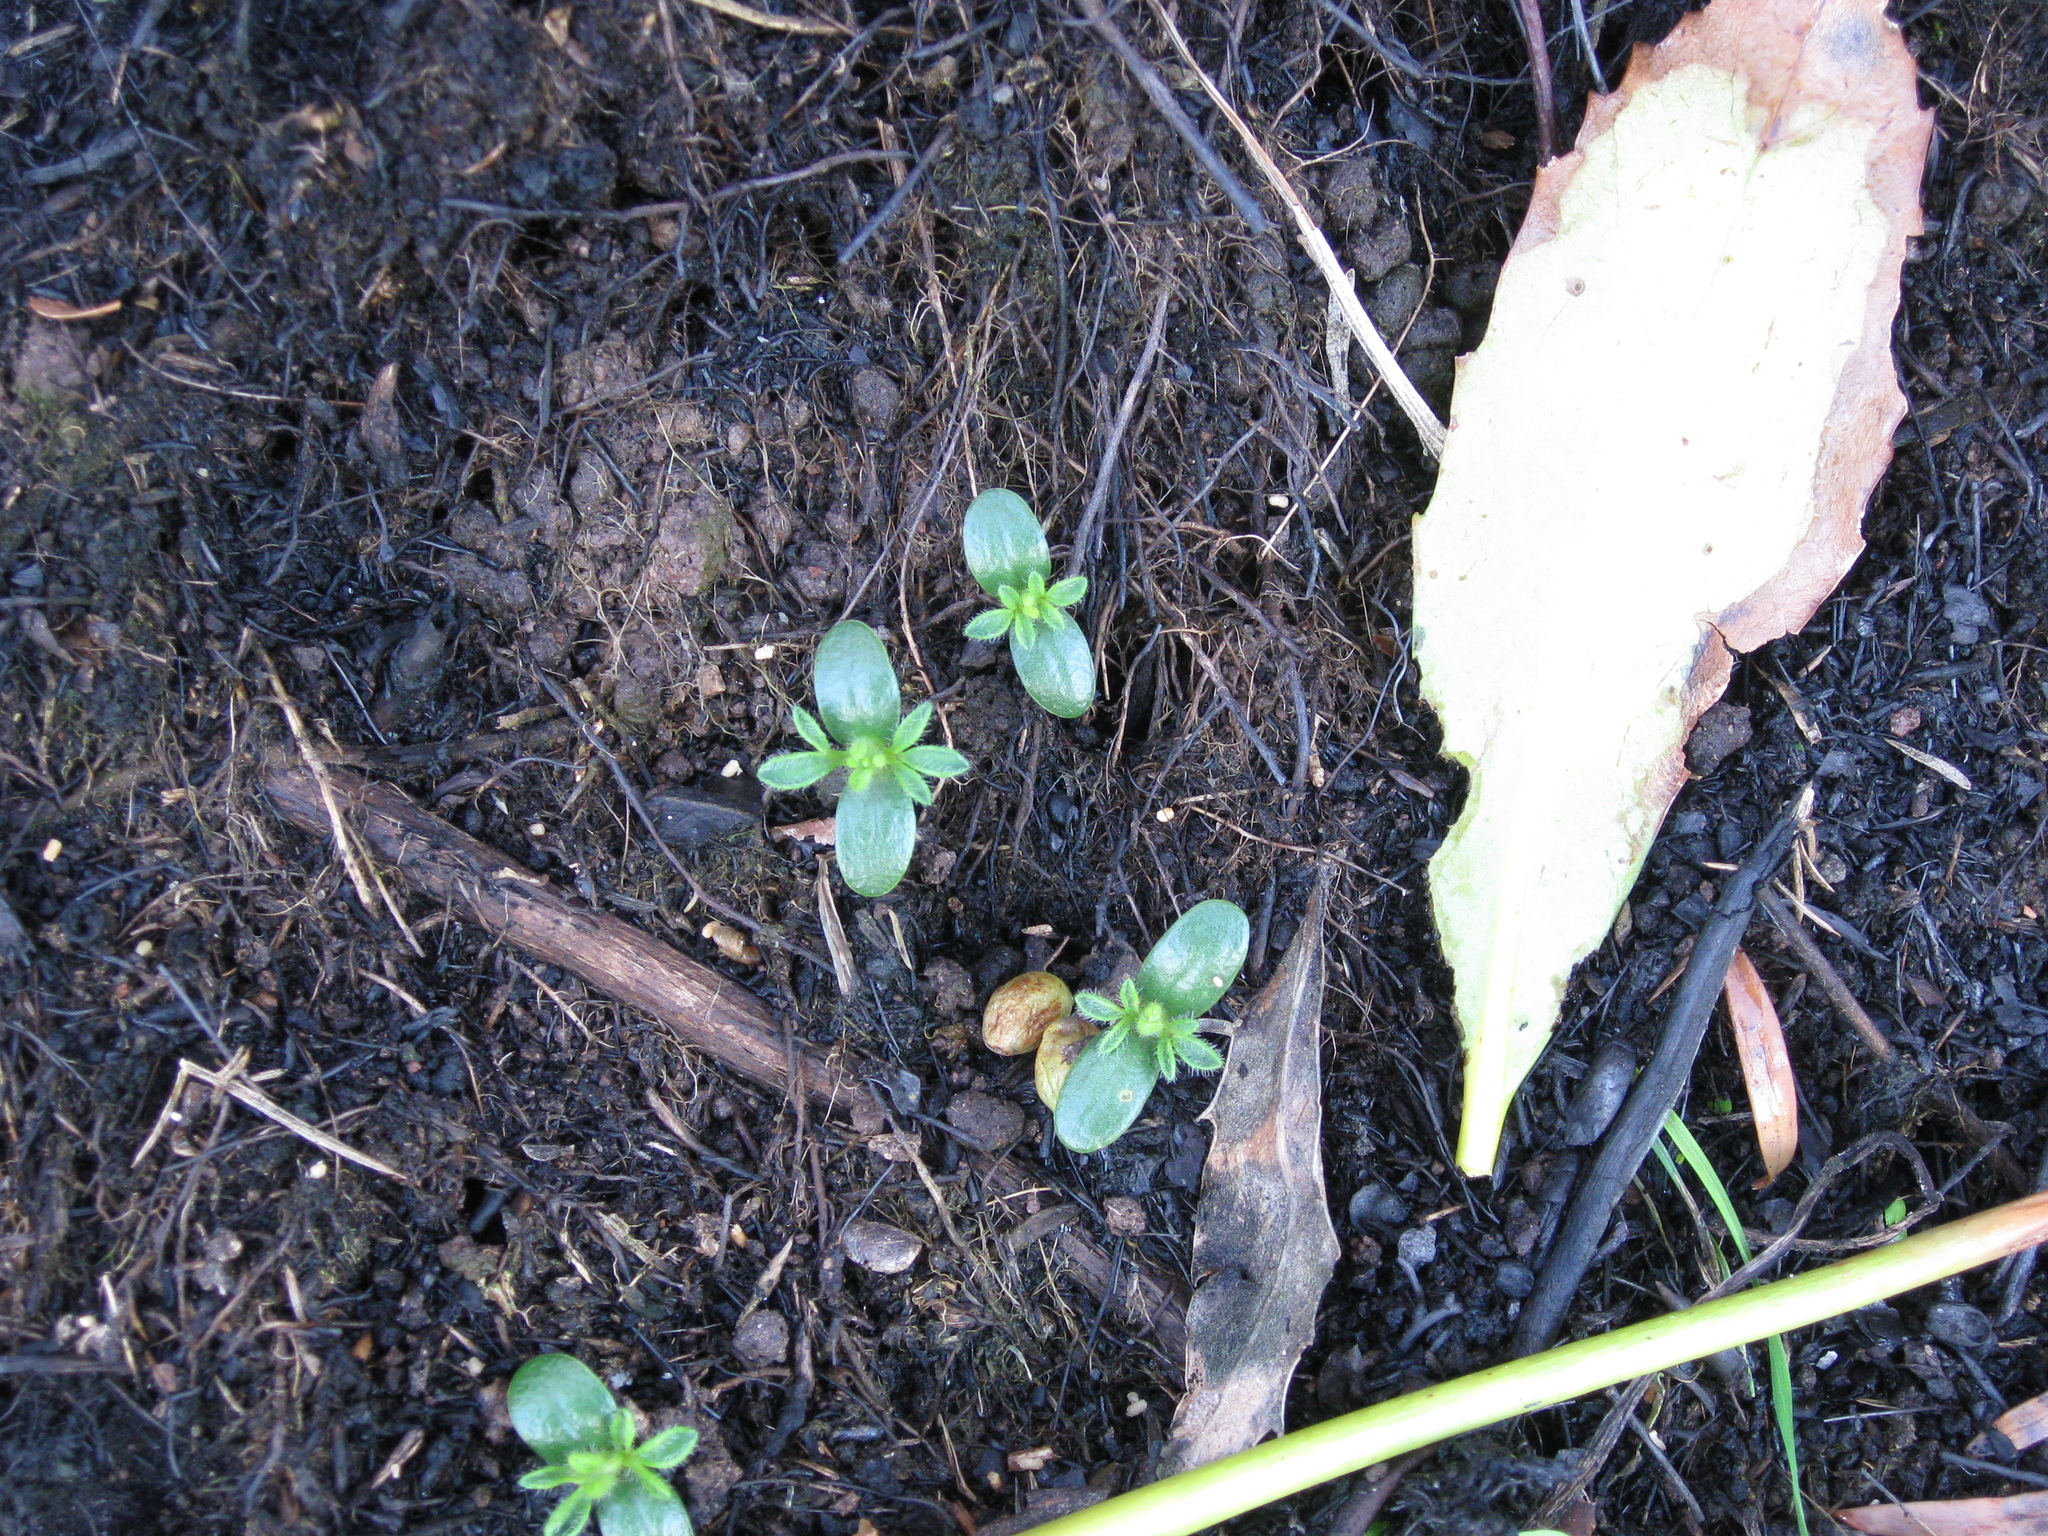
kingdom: Plantae
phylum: Tracheophyta
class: Magnoliopsida
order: Fabales
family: Fabaceae
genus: Cytisus
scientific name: Cytisus scoparius
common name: Scotch broom
